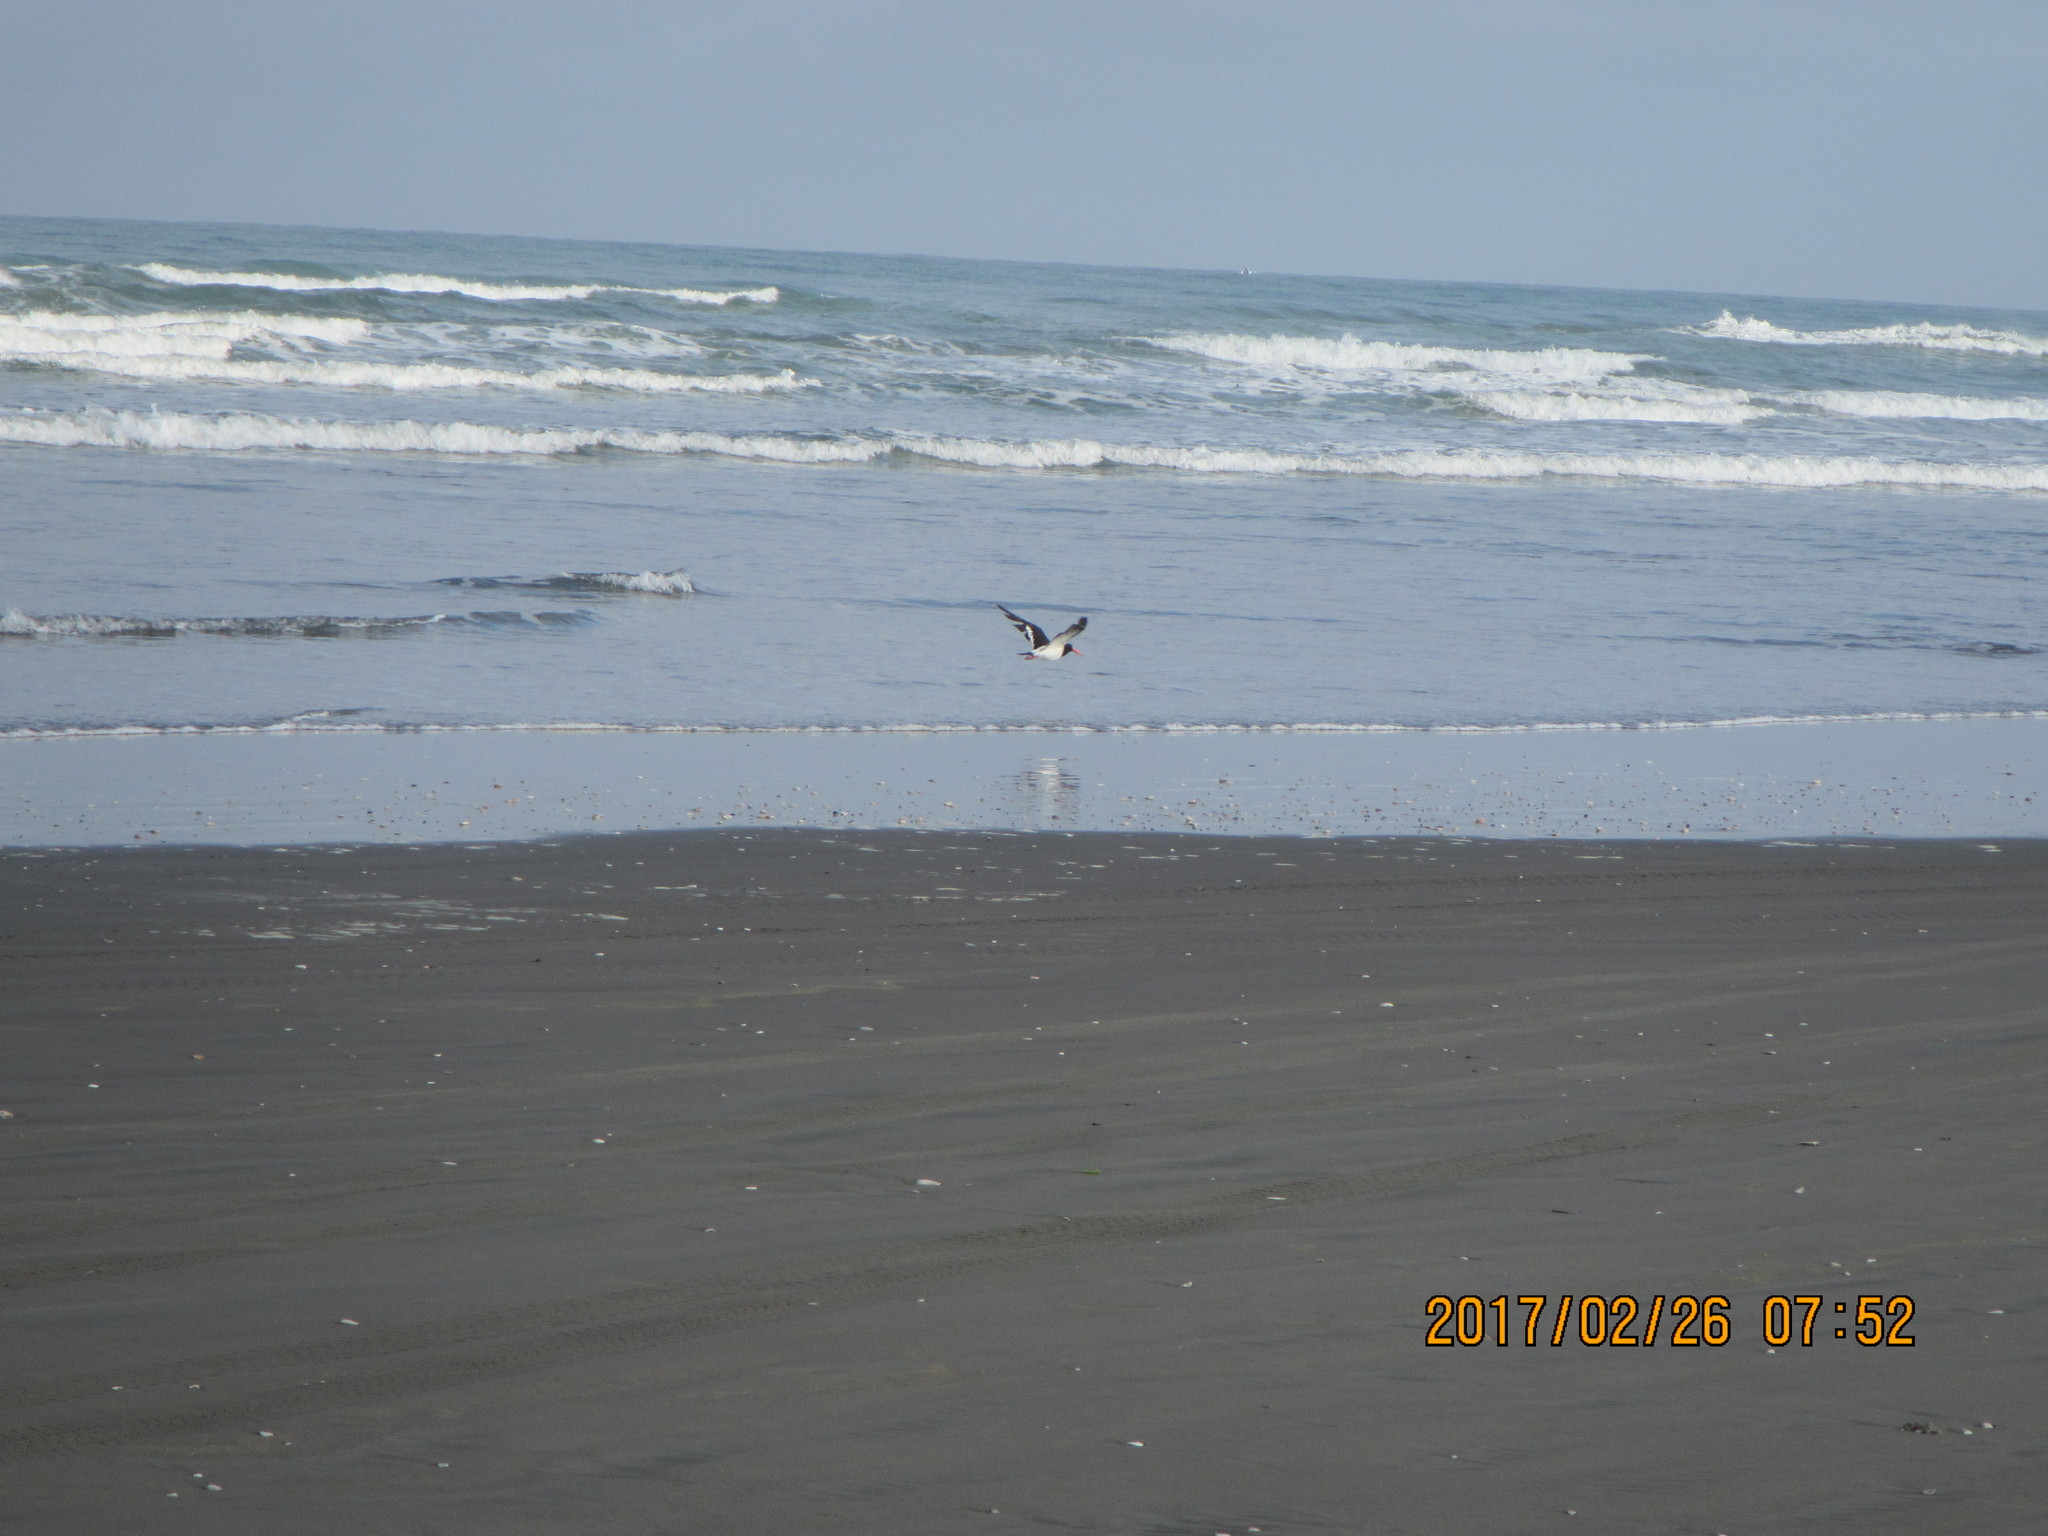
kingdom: Animalia
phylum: Chordata
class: Aves
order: Charadriiformes
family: Haematopodidae
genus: Haematopus
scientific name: Haematopus finschi
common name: South island oystercatcher
